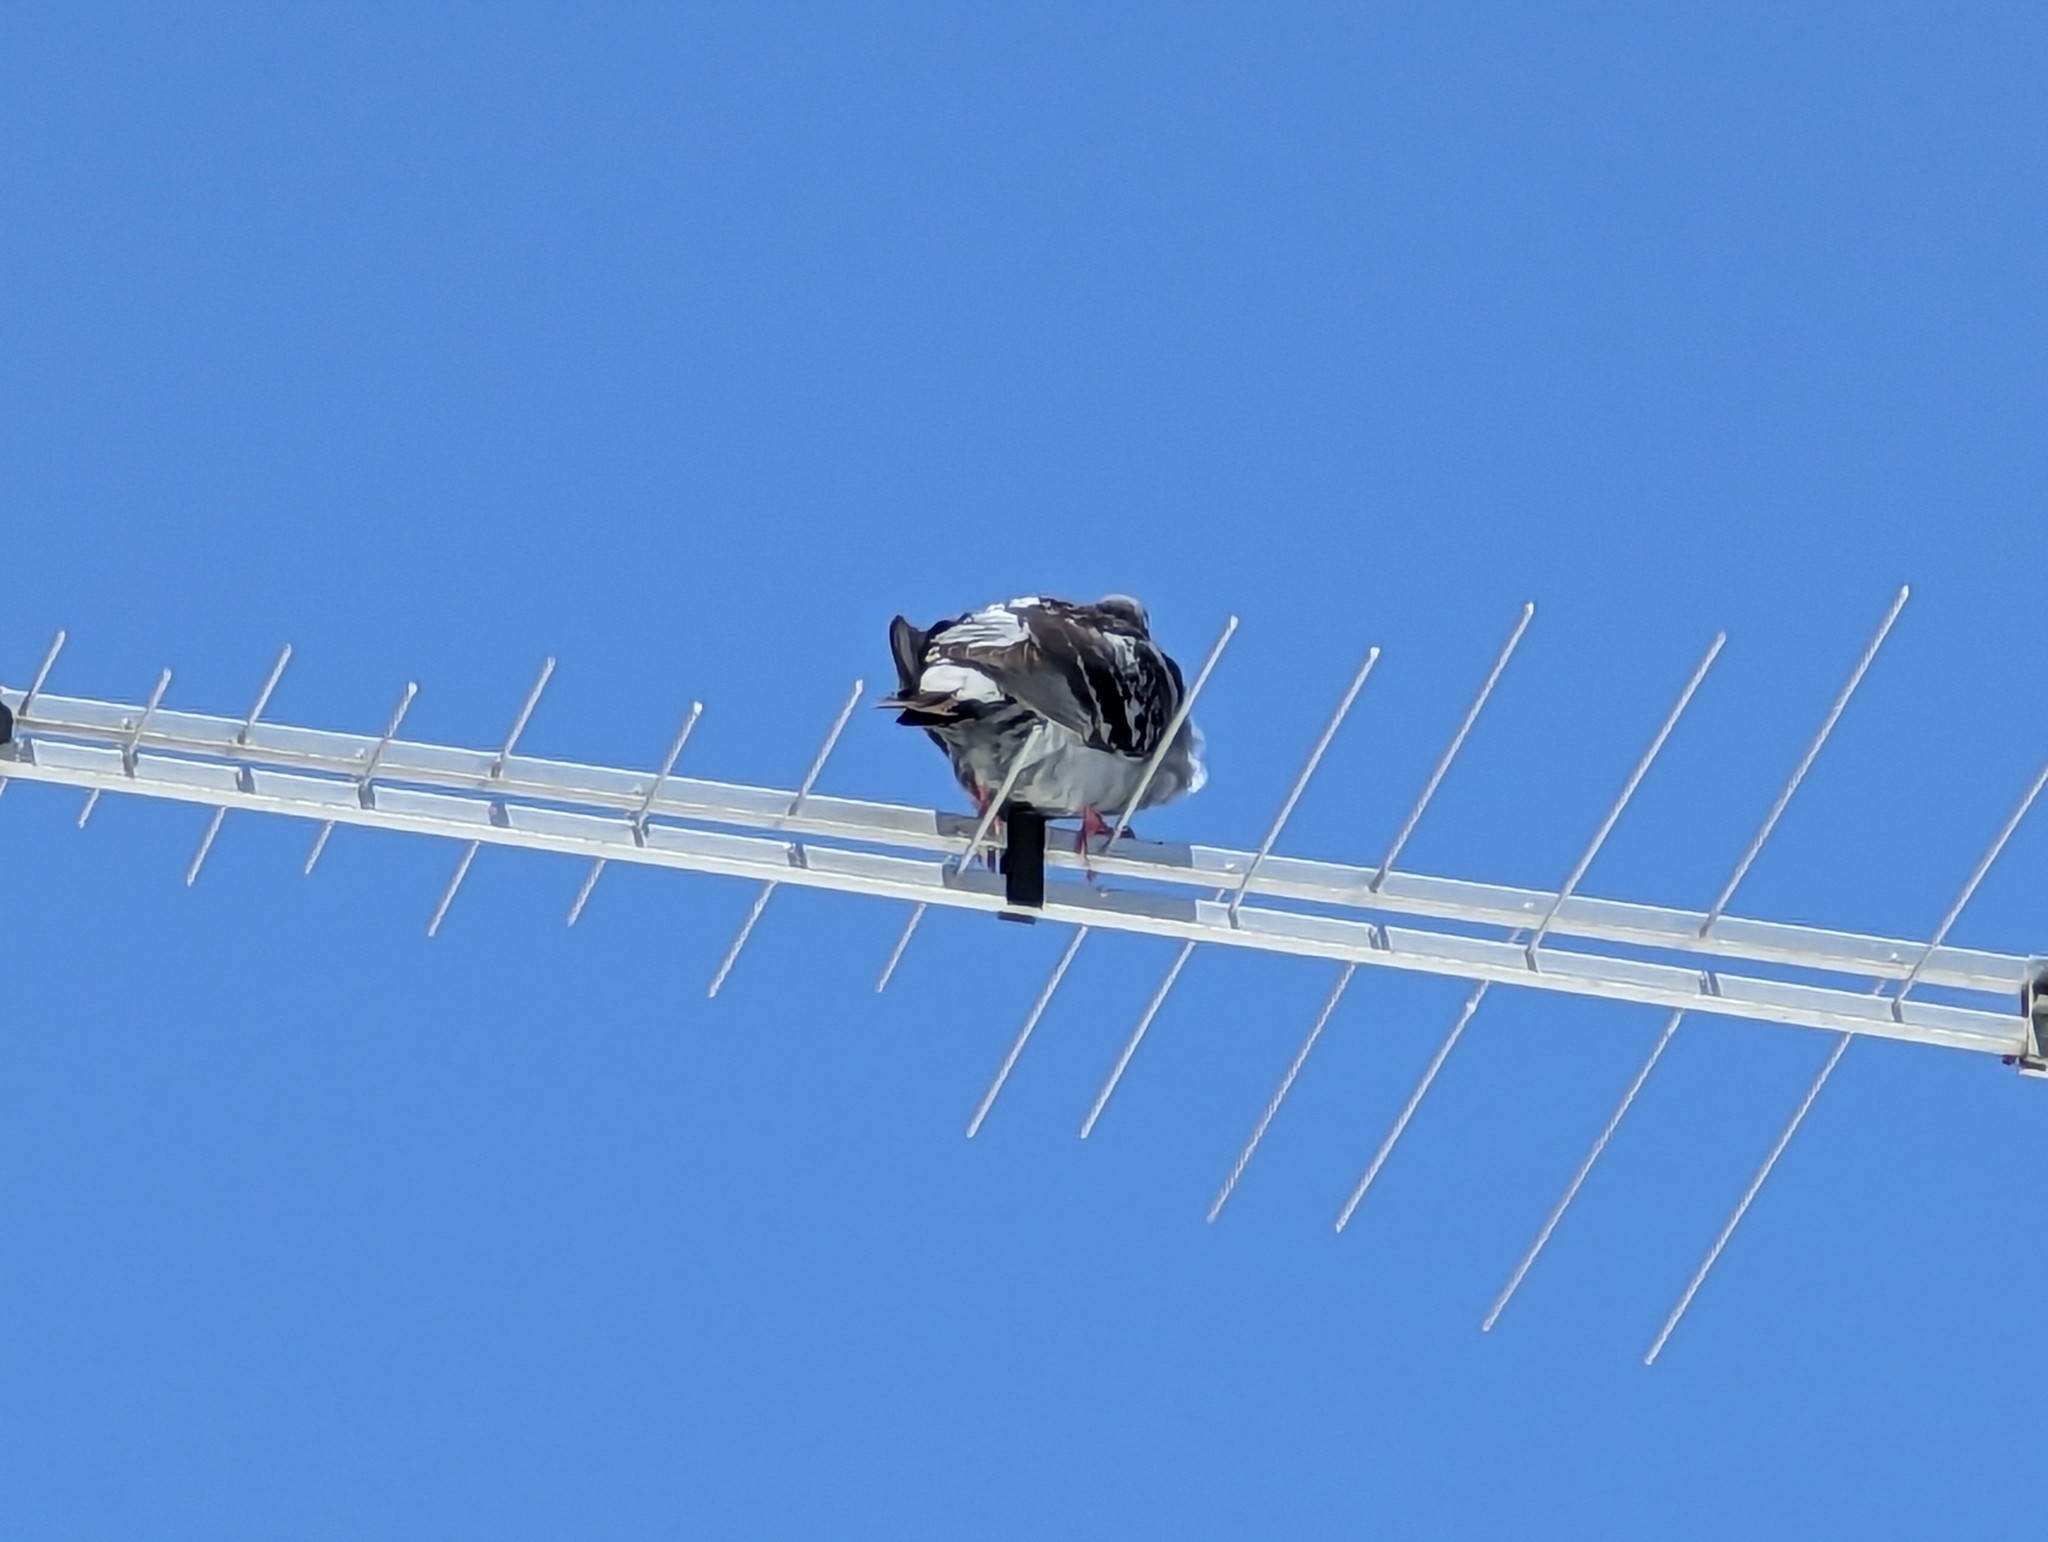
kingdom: Animalia
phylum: Chordata
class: Aves
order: Columbiformes
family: Columbidae
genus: Columba
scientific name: Columba livia
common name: Rock pigeon
